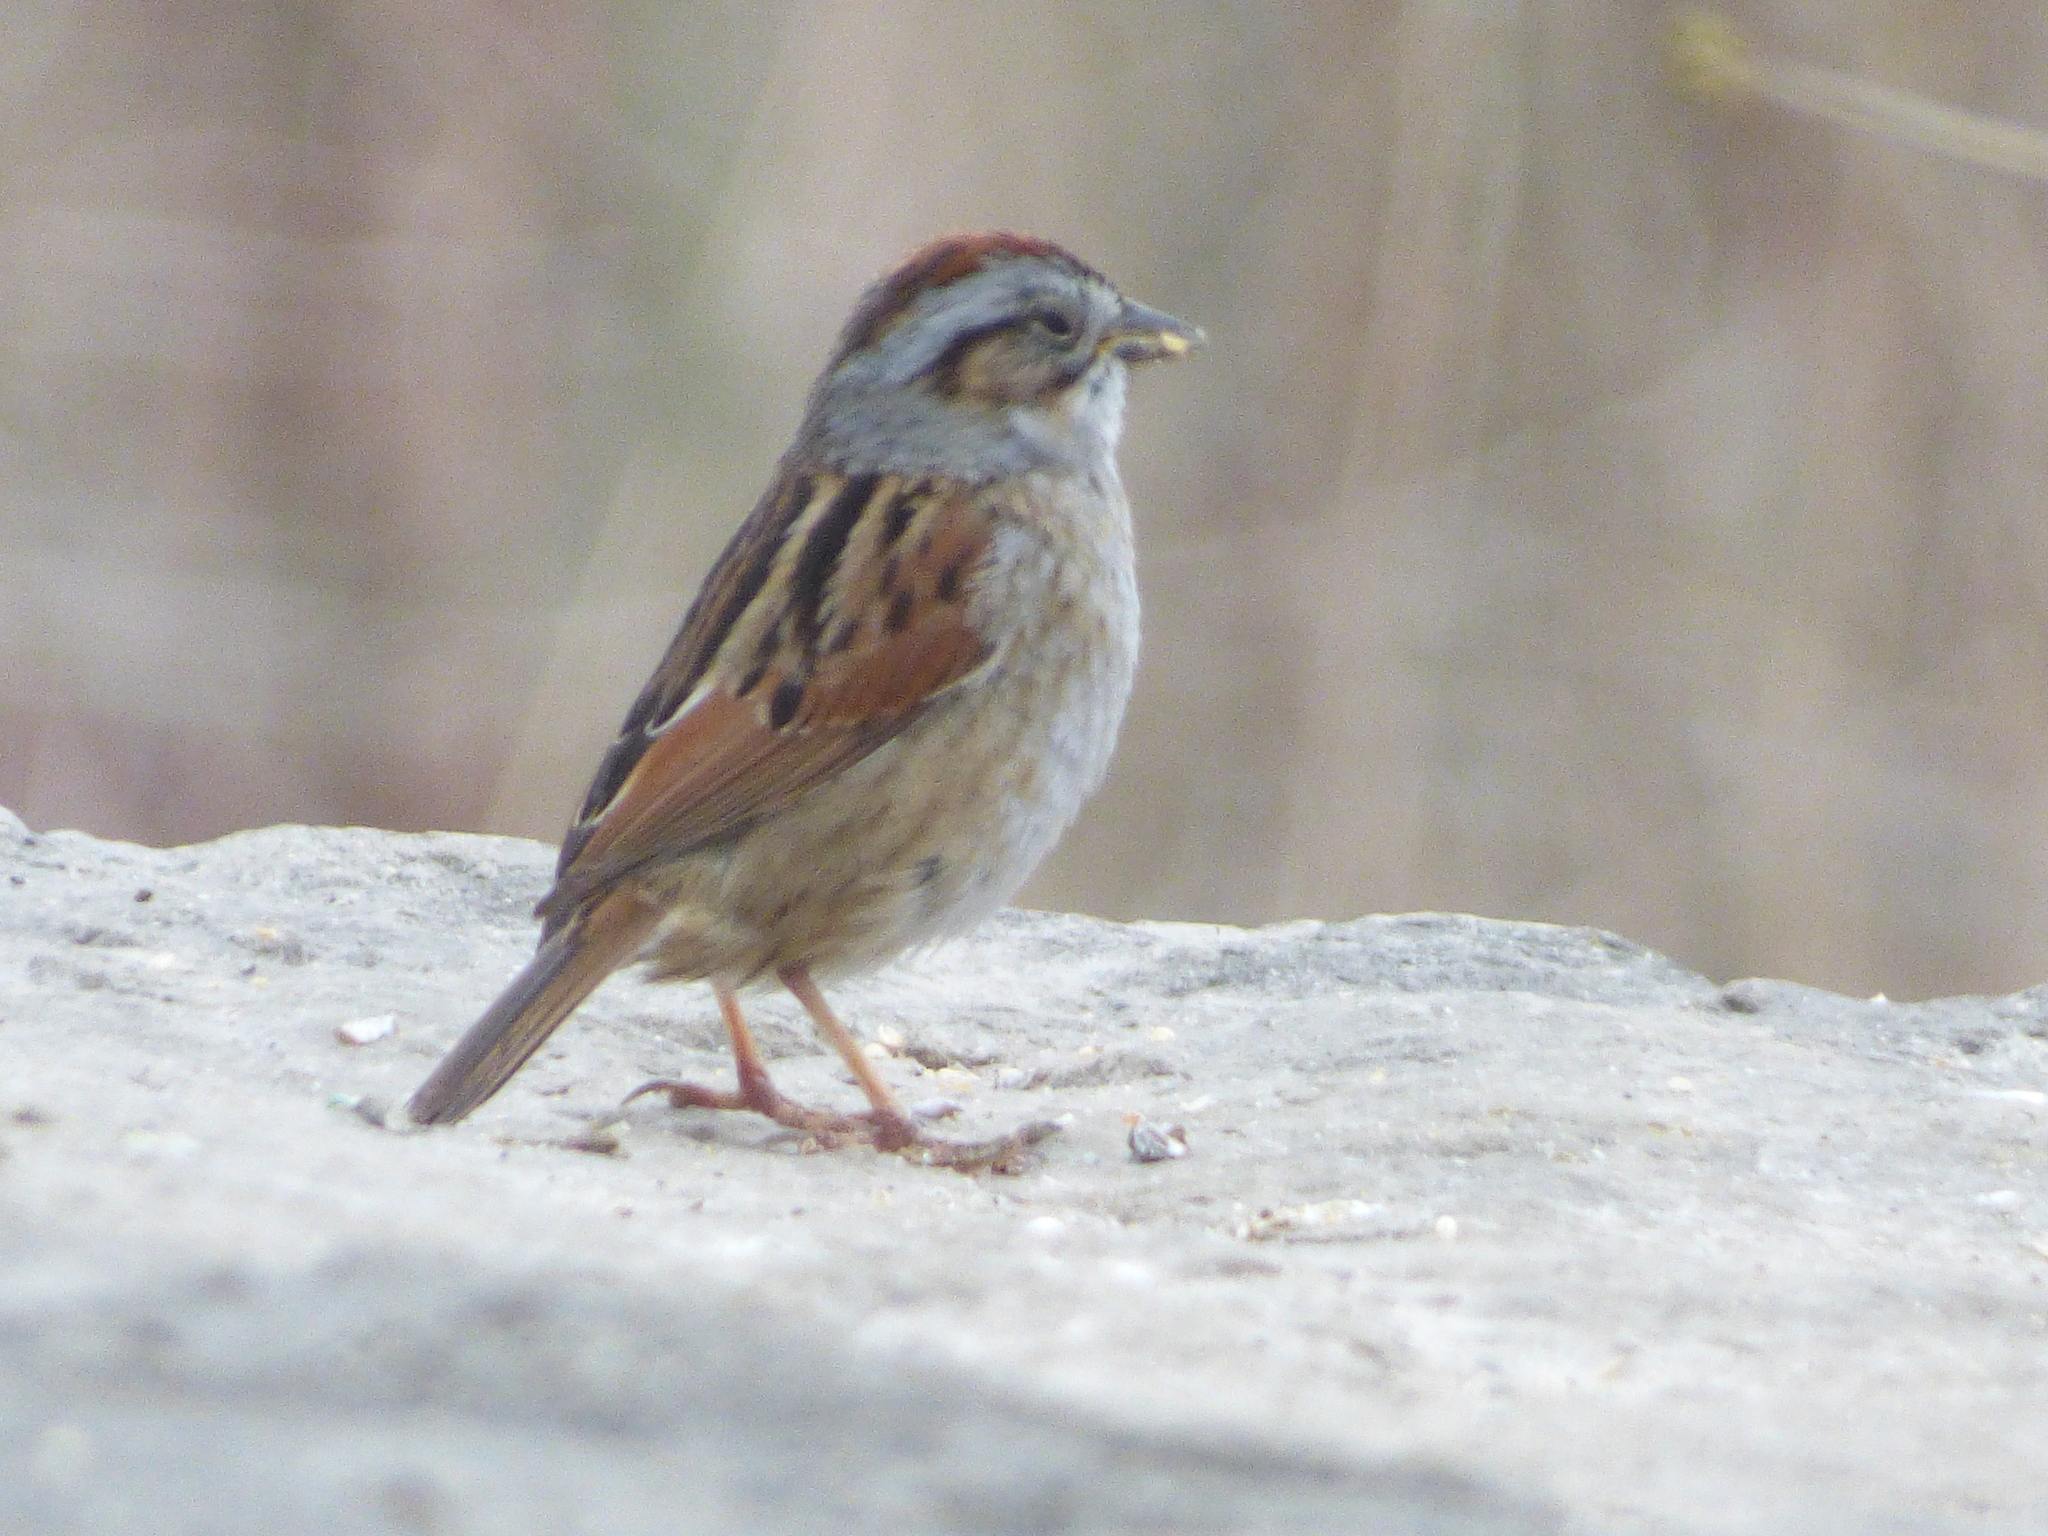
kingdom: Animalia
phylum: Chordata
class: Aves
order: Passeriformes
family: Passerellidae
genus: Melospiza
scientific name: Melospiza georgiana
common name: Swamp sparrow
